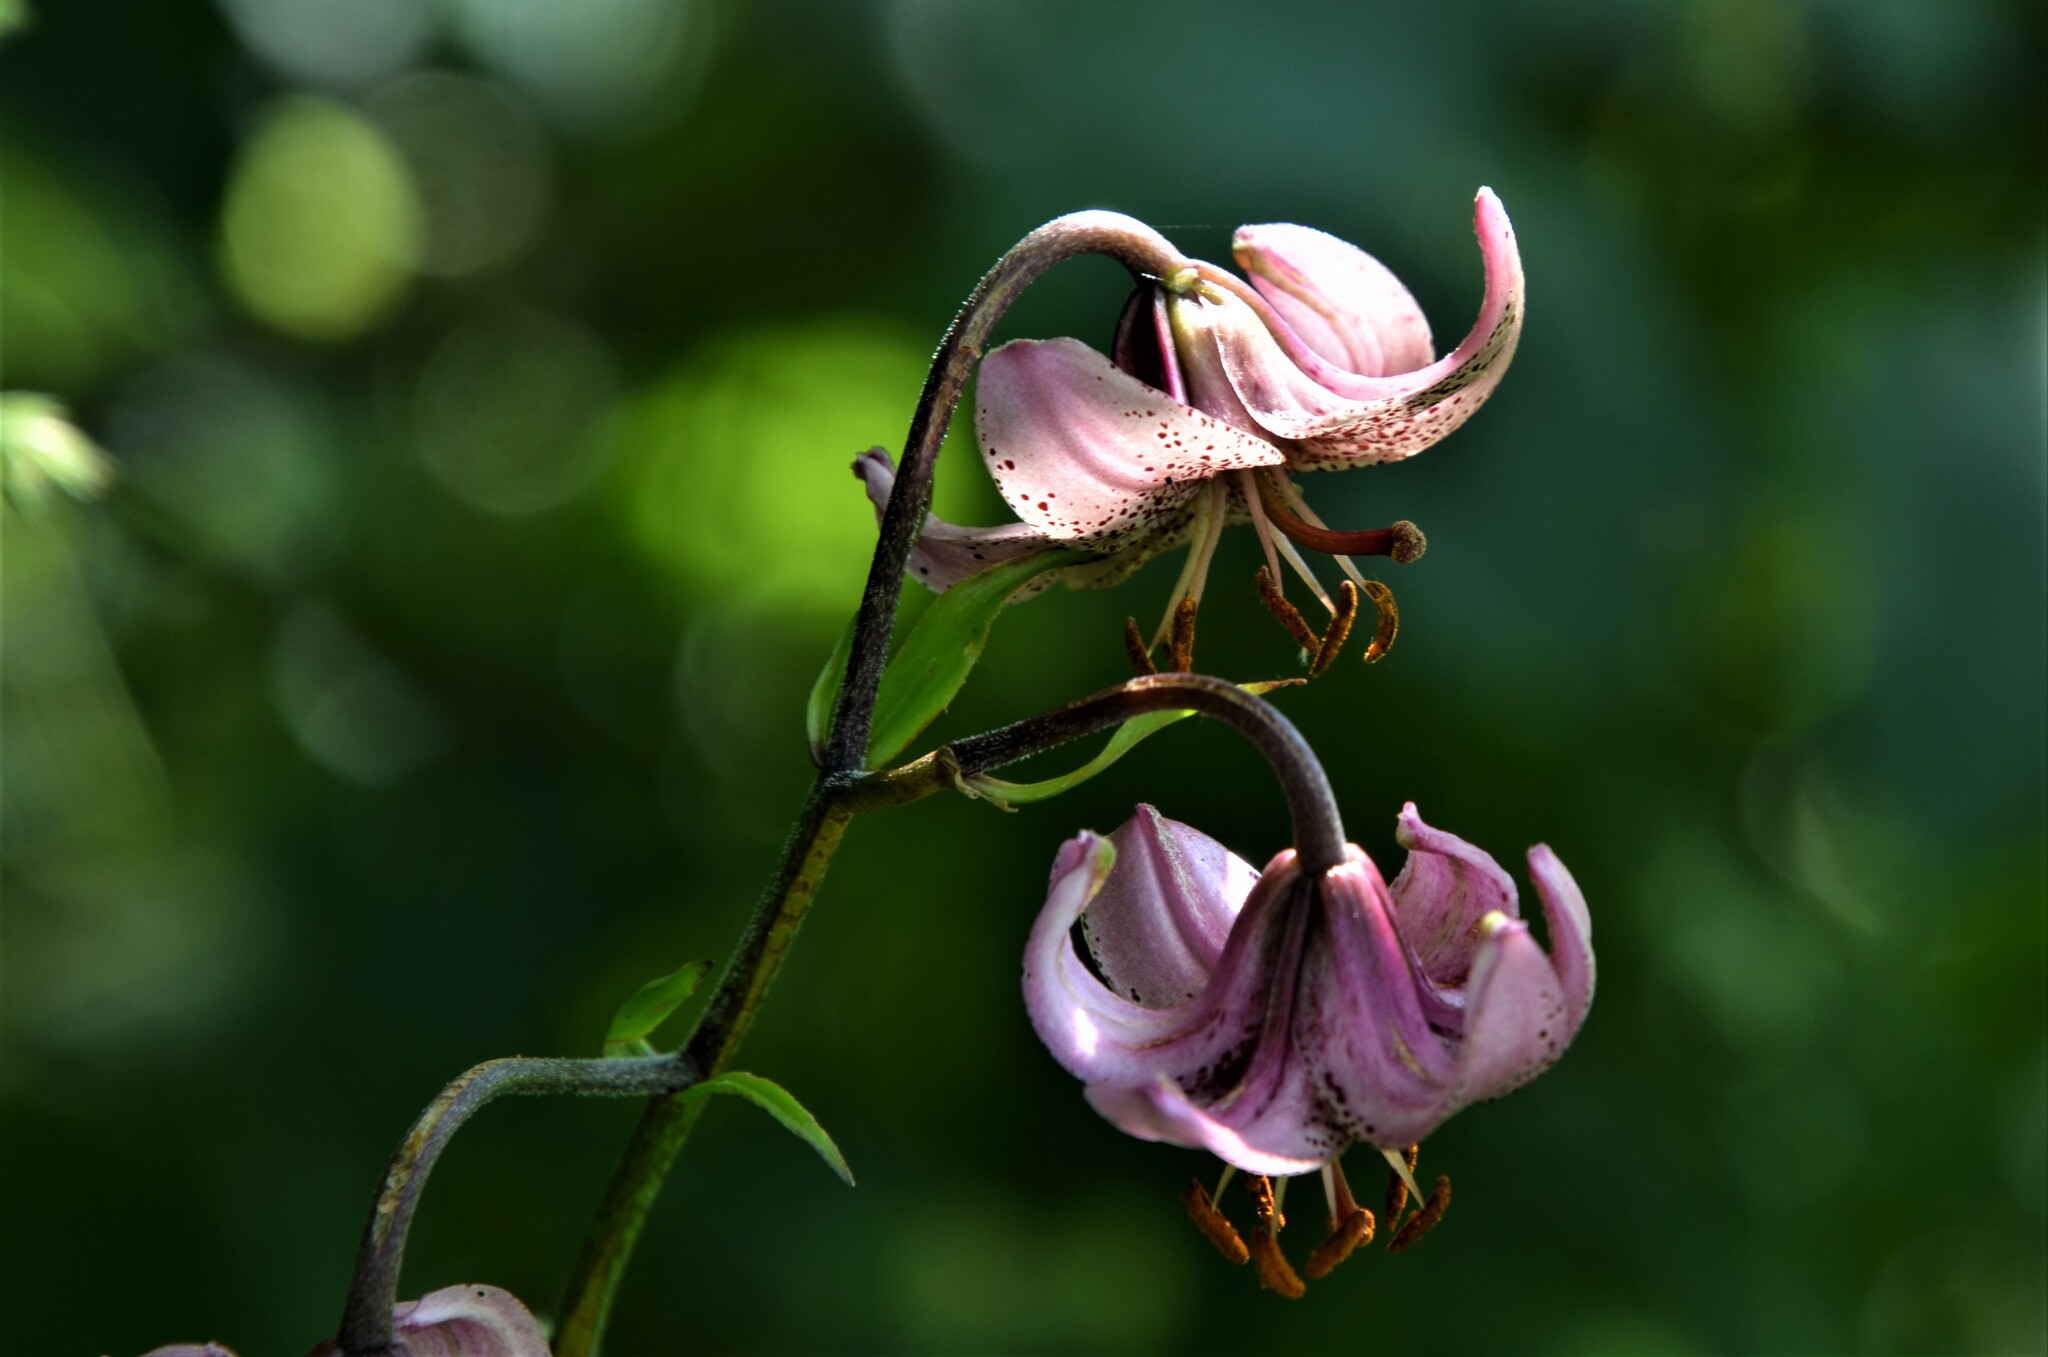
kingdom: Plantae
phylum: Tracheophyta
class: Liliopsida
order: Liliales
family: Liliaceae
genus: Lilium
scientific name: Lilium martagon
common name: Martagon lily
